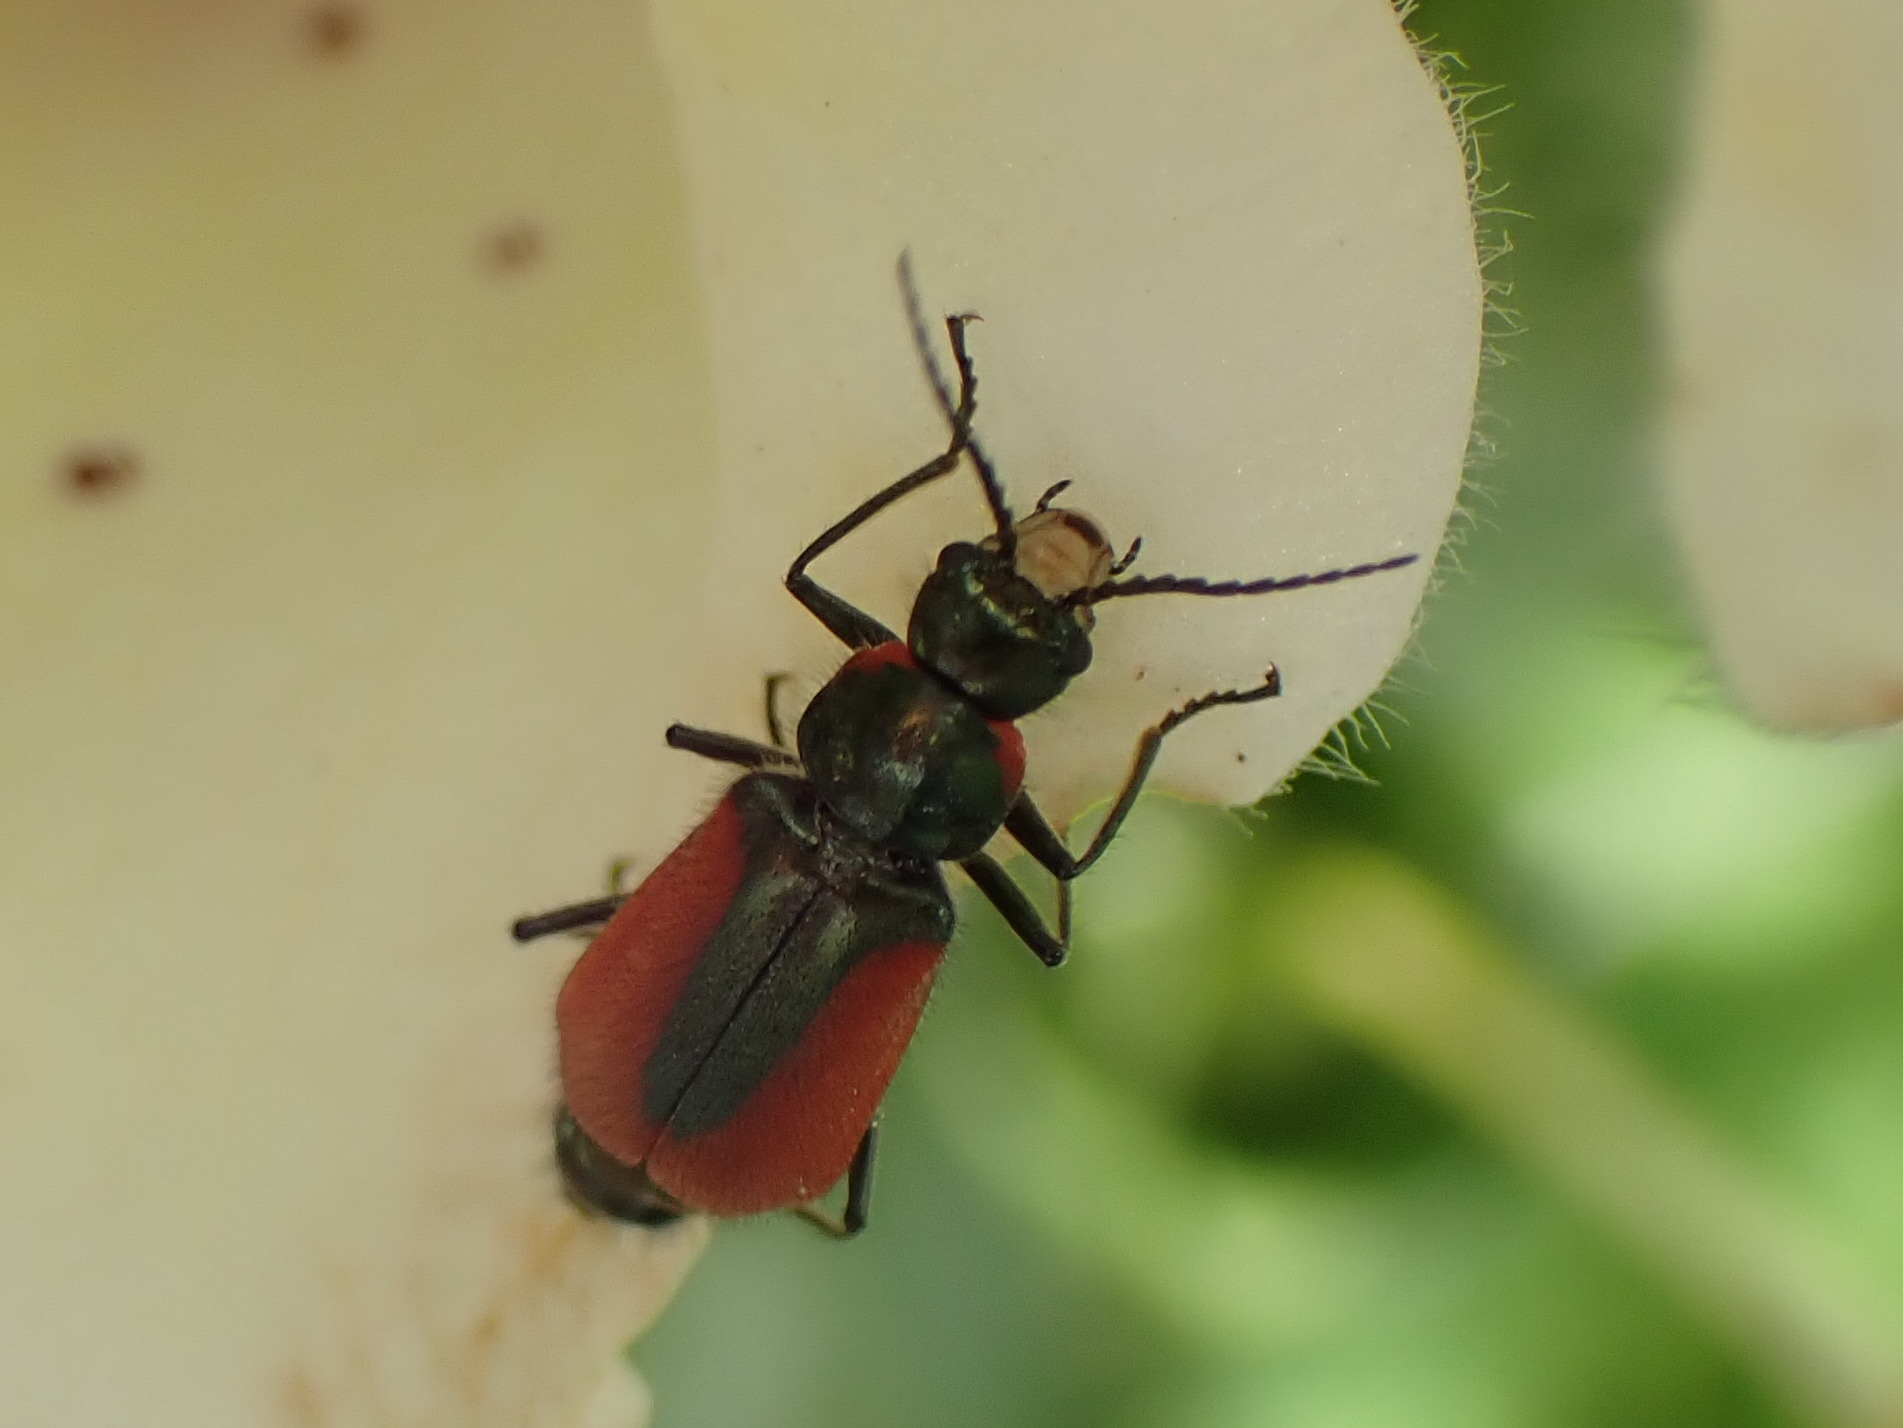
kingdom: Animalia
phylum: Arthropoda
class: Insecta
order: Coleoptera
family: Melyridae
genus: Malachius
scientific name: Malachius aeneus
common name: Scarlet malachite beetle
